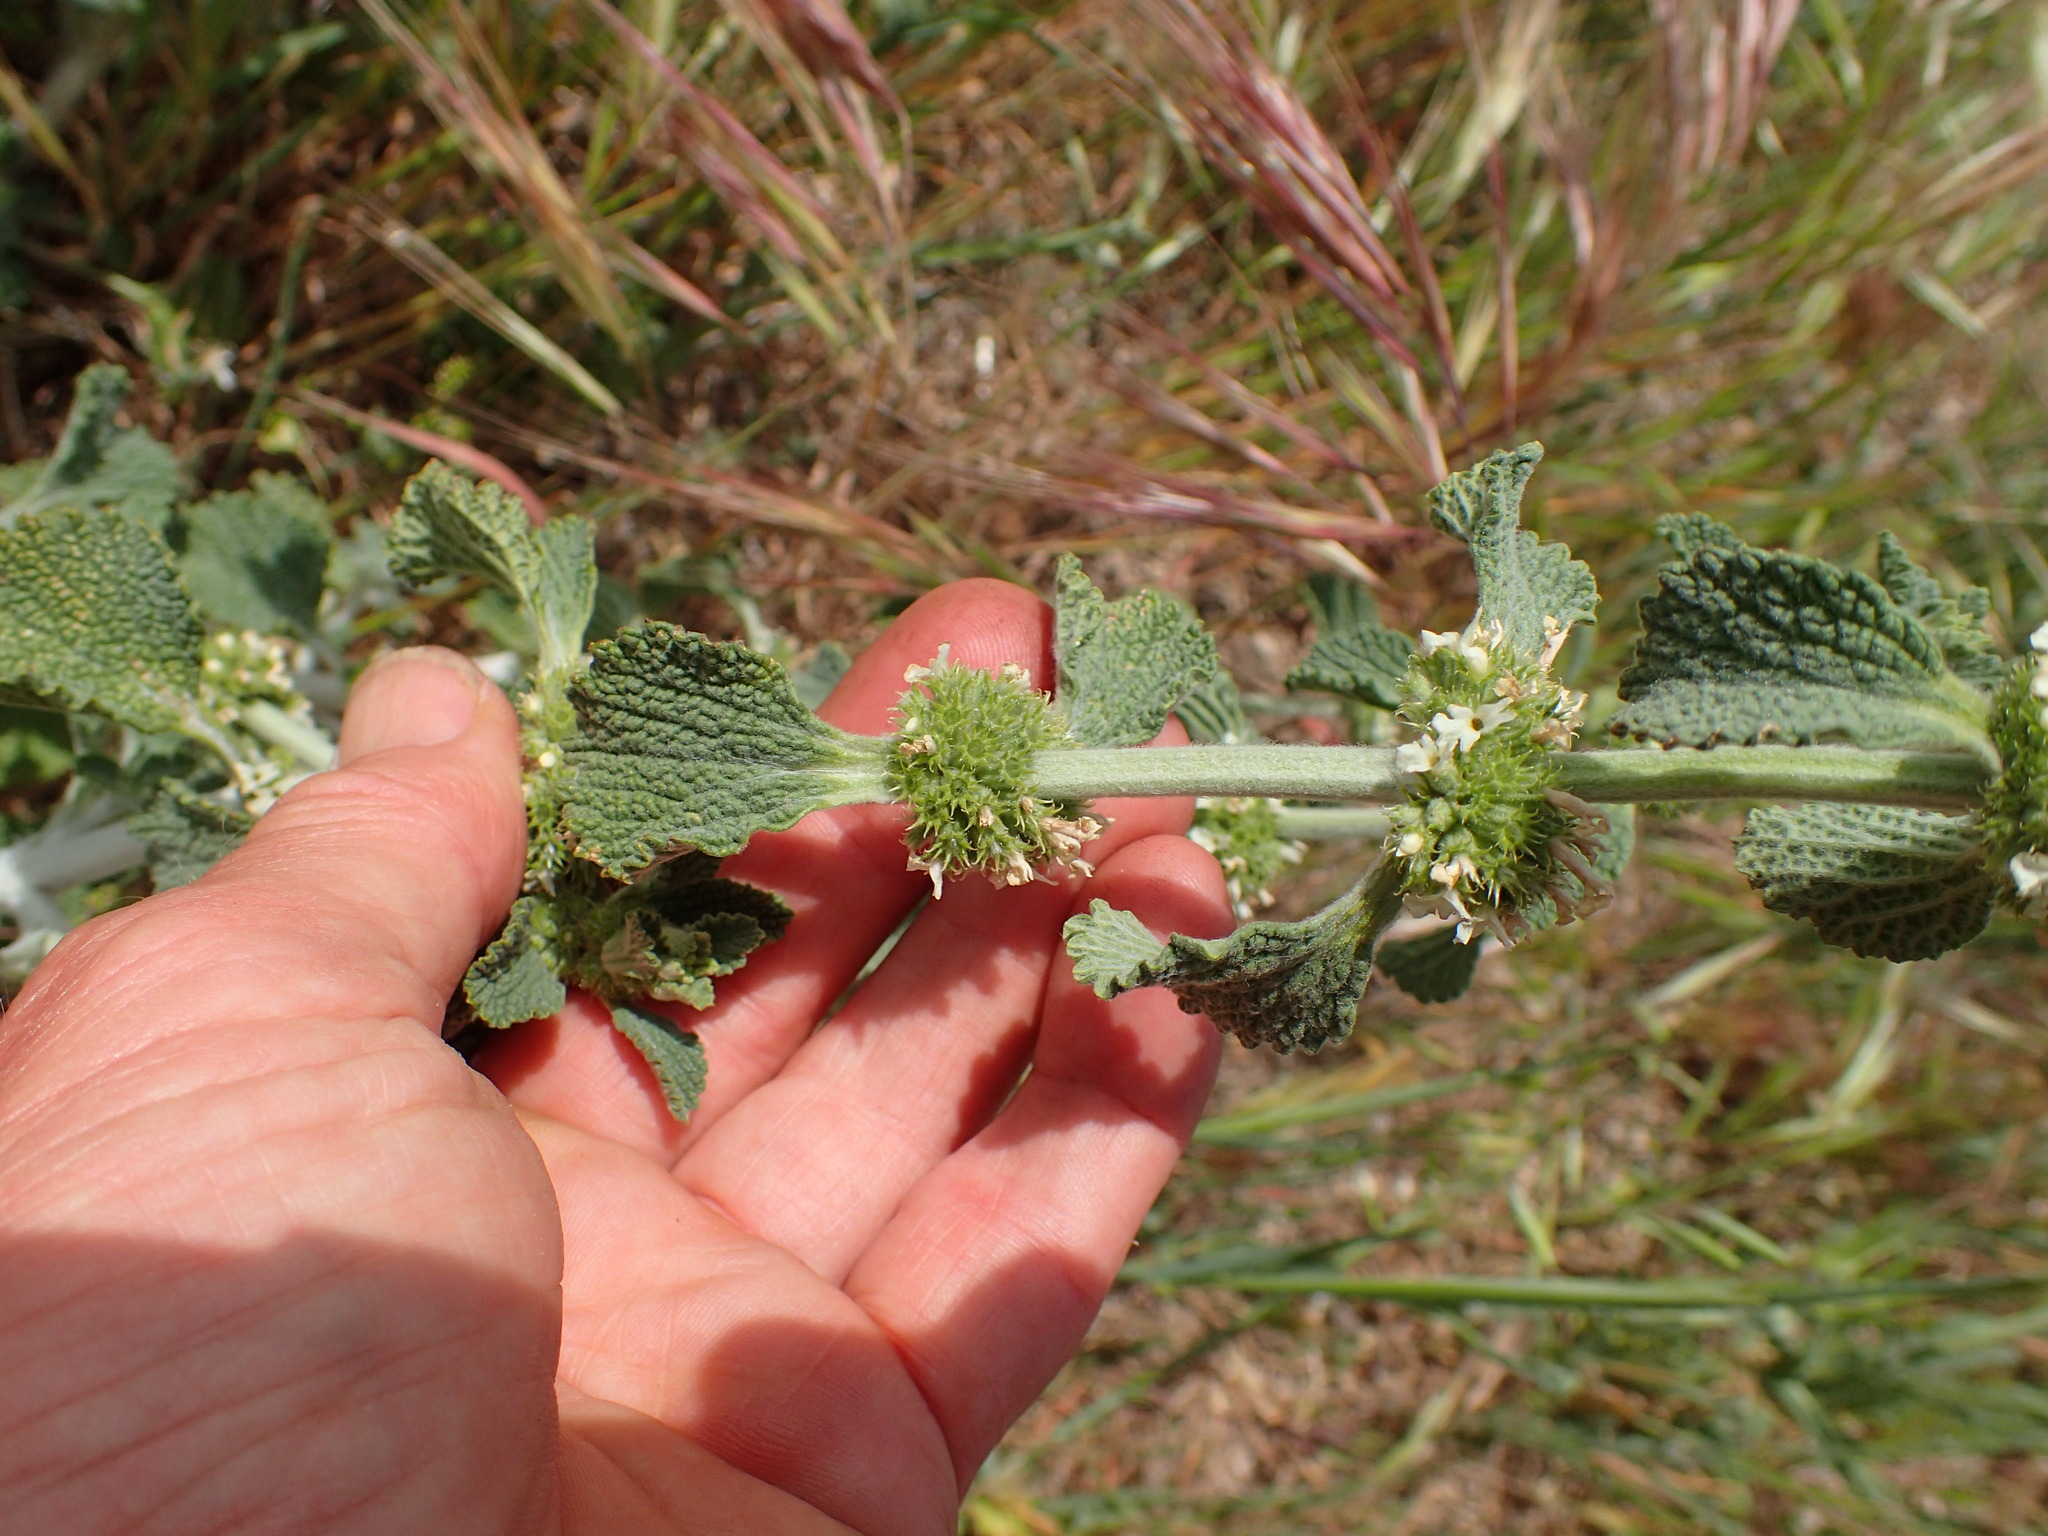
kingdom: Plantae
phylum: Tracheophyta
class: Magnoliopsida
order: Lamiales
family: Lamiaceae
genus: Marrubium
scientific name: Marrubium vulgare
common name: Horehound
